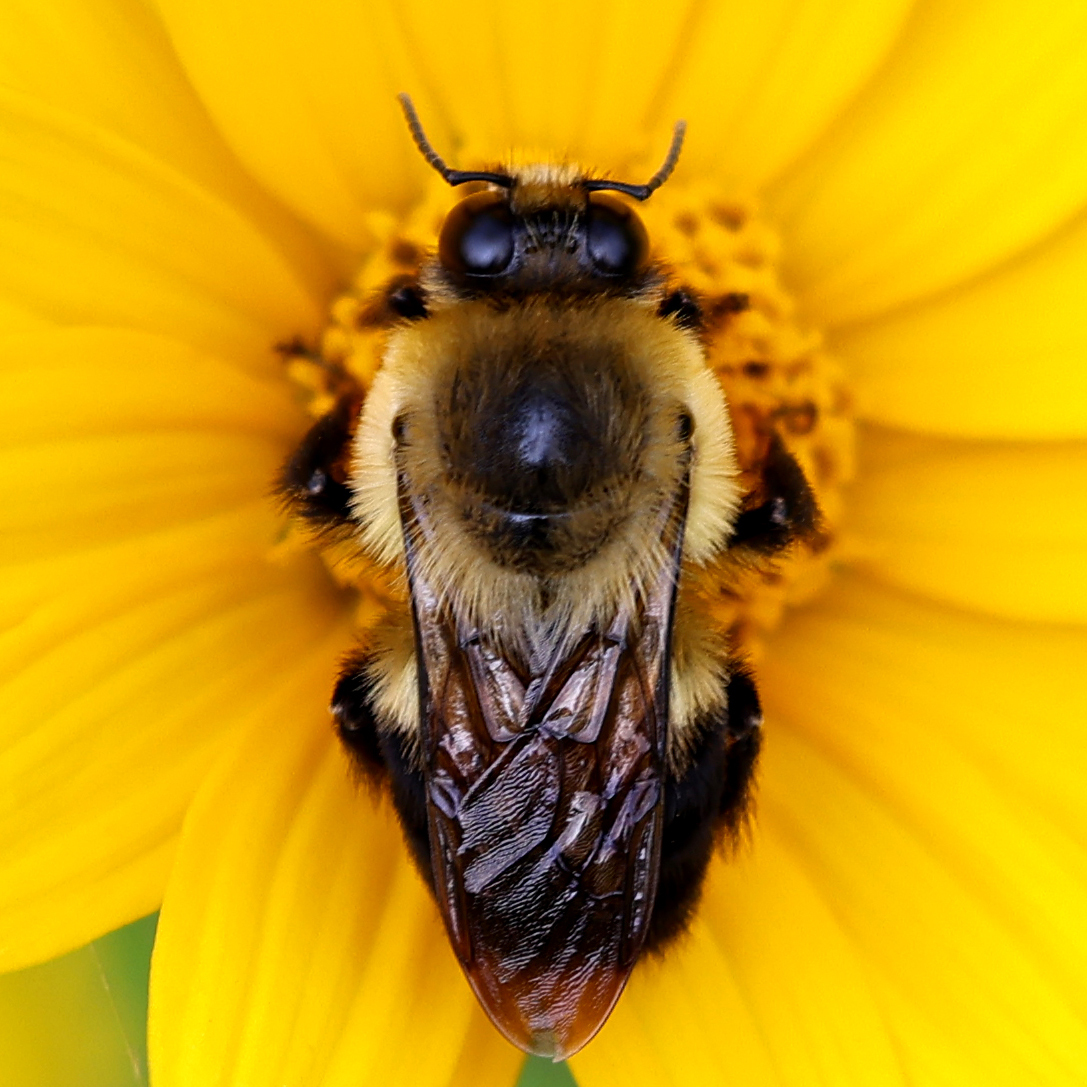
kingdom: Animalia
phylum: Arthropoda
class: Insecta
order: Hymenoptera
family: Apidae
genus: Bombus
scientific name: Bombus griseocollis
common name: Brown-belted bumble bee
